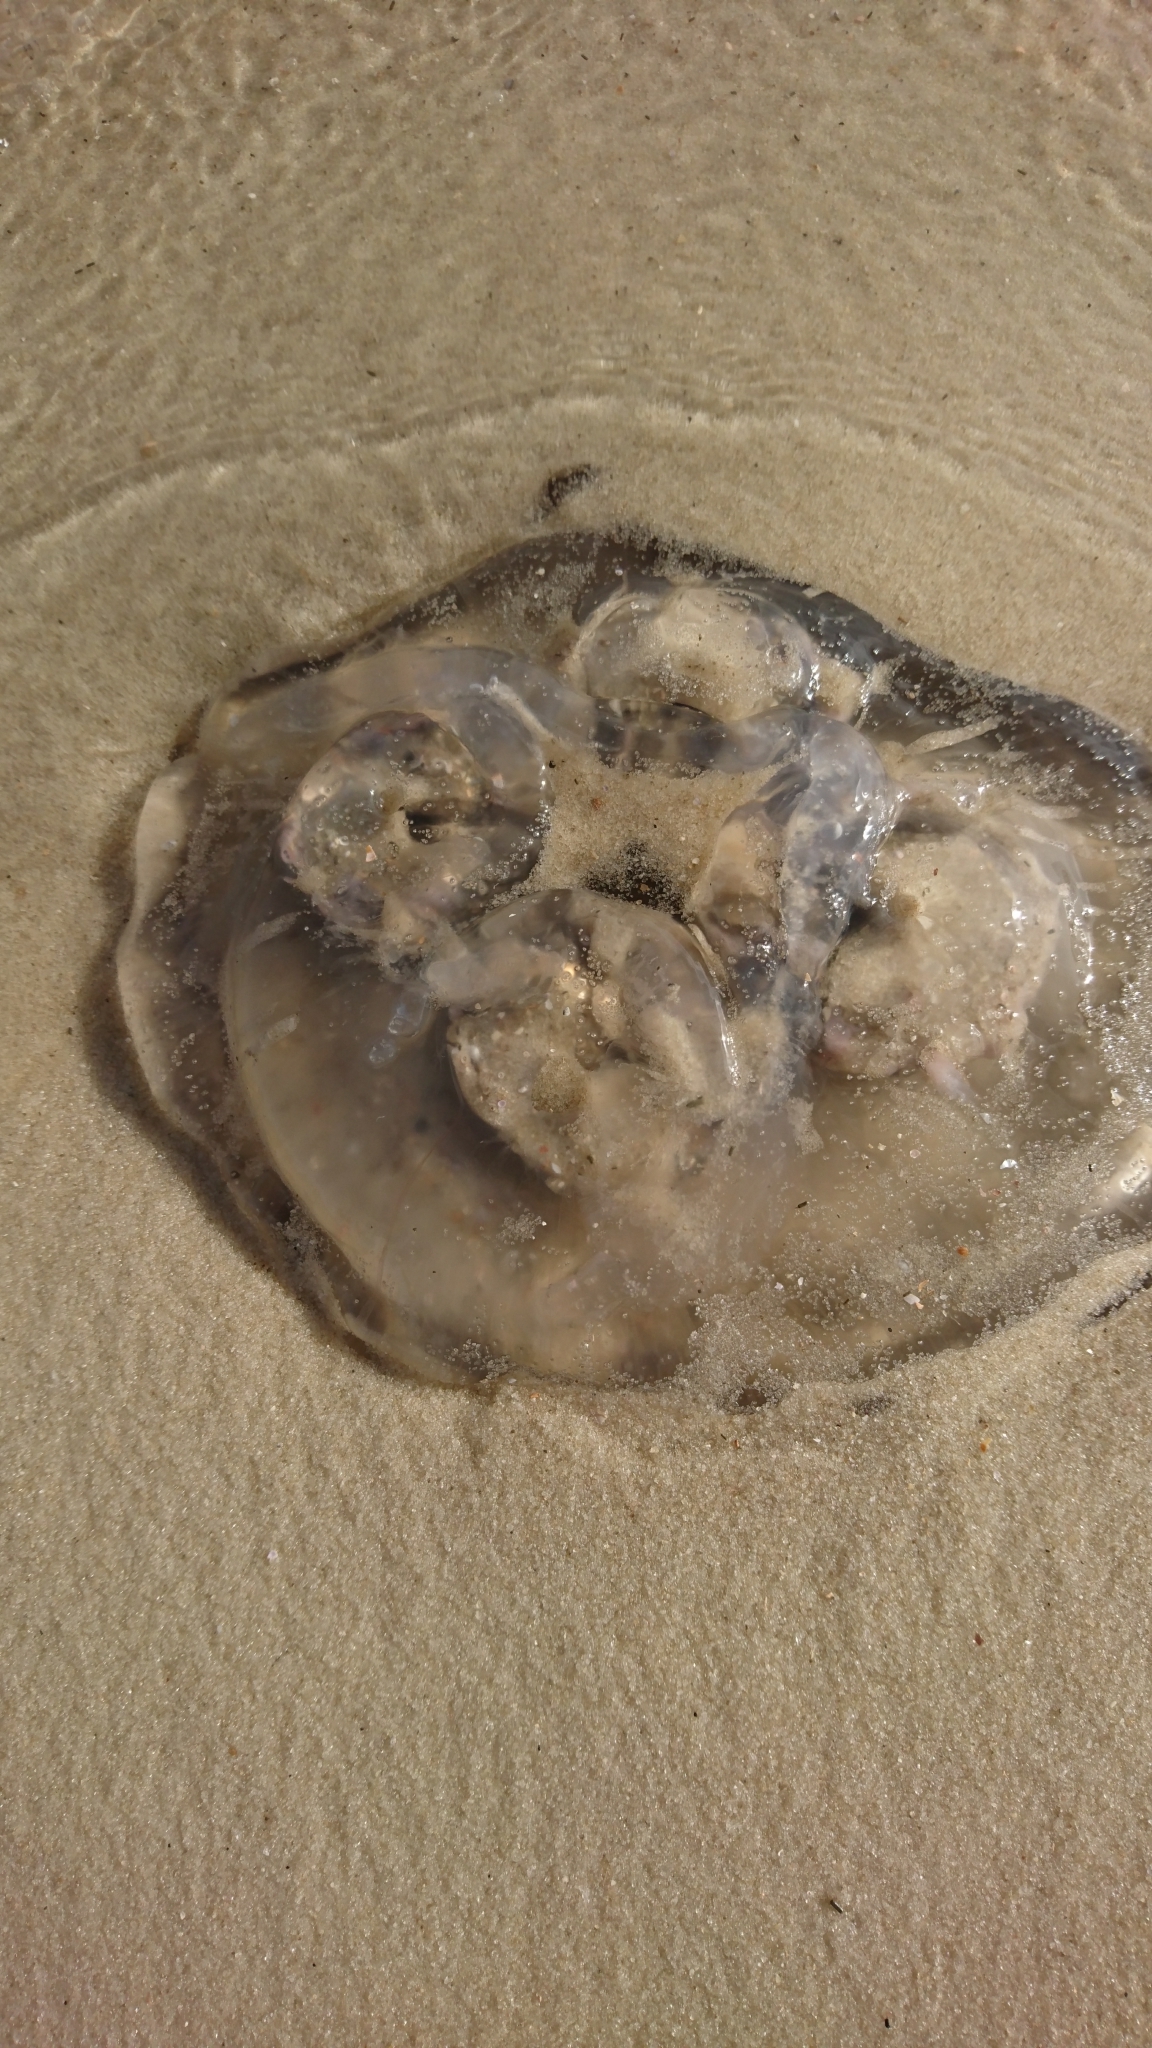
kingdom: Animalia
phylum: Cnidaria
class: Scyphozoa
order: Semaeostomeae
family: Ulmaridae
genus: Aurelia
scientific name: Aurelia marginalis
